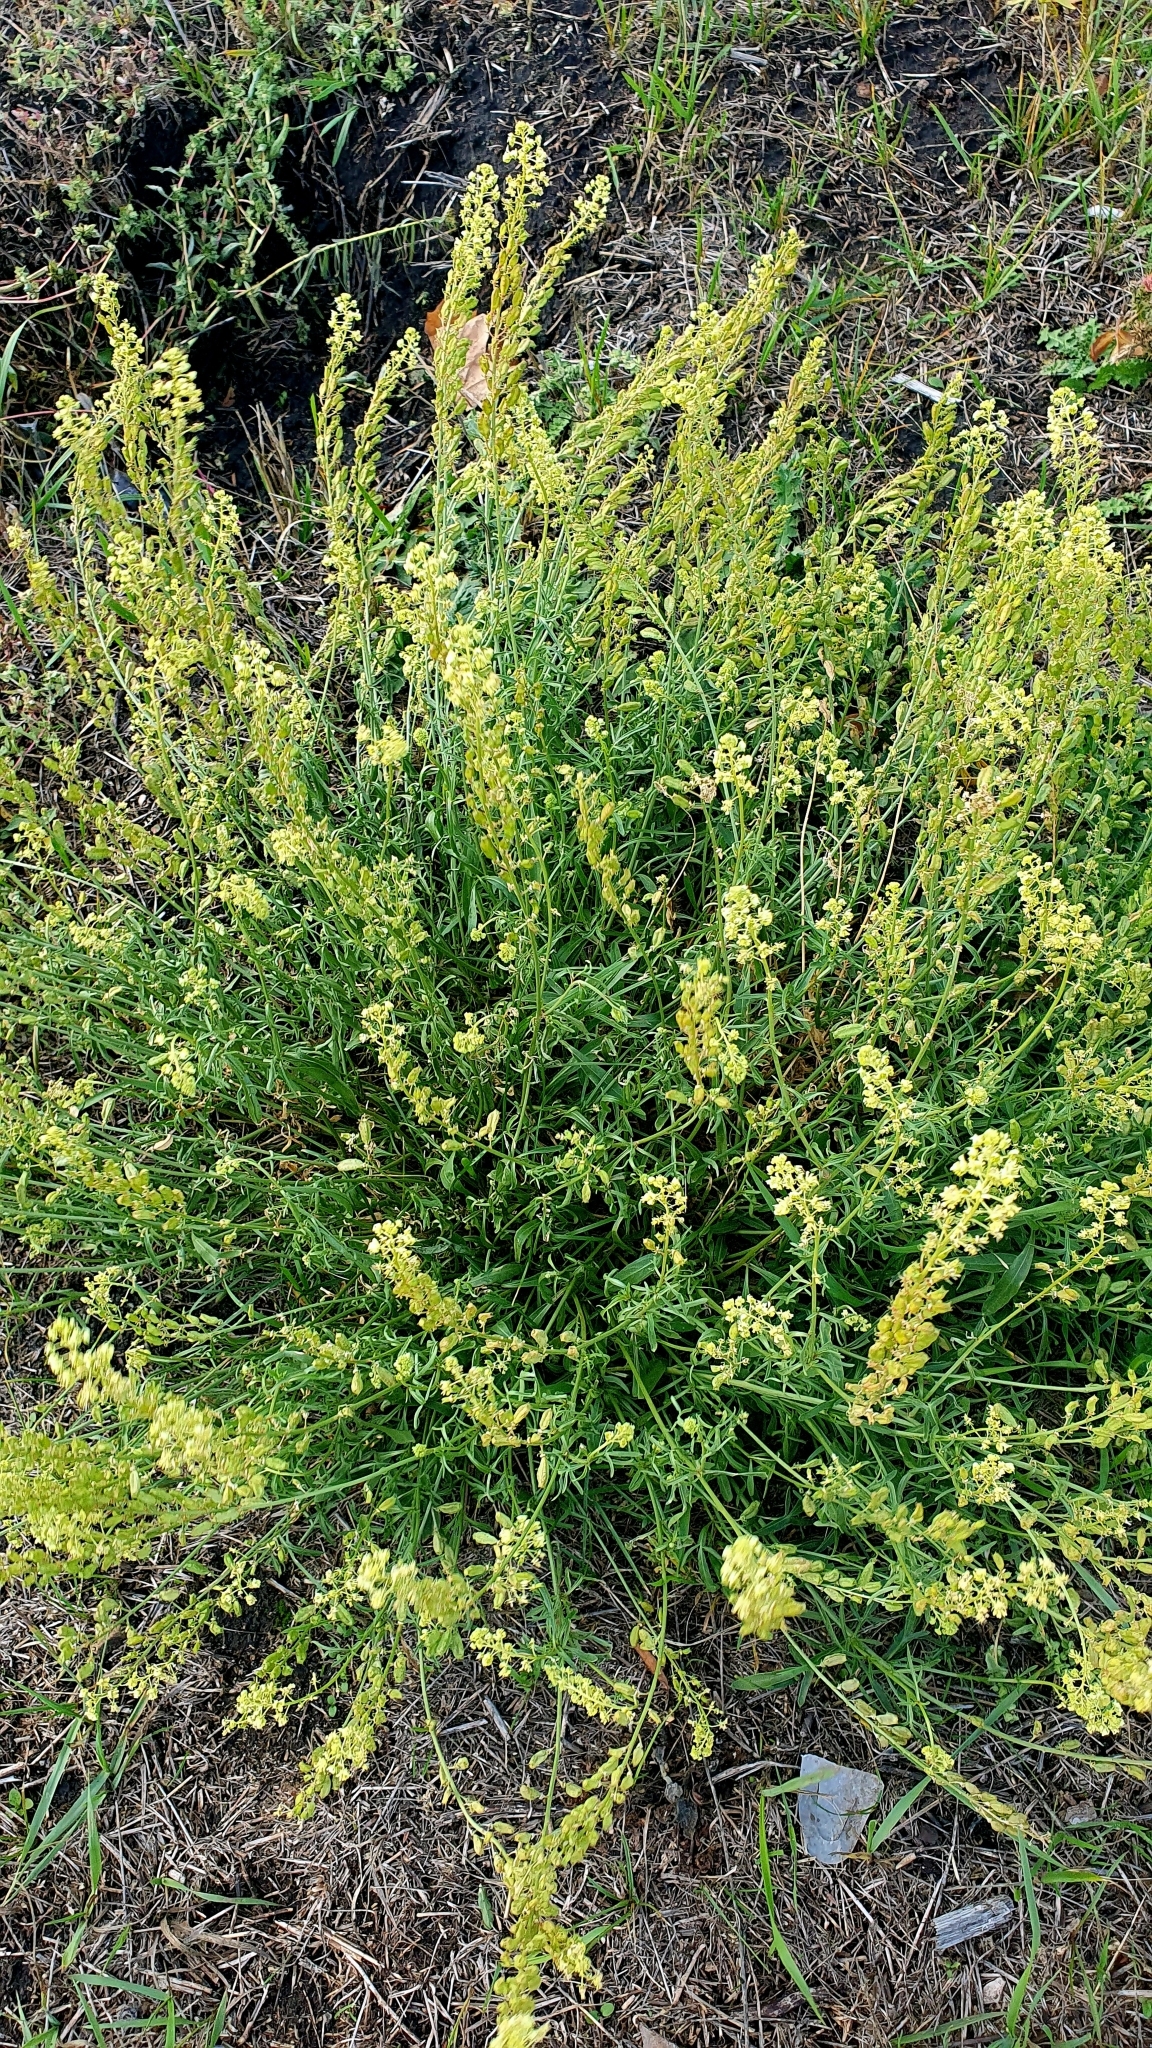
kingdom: Plantae
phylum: Tracheophyta
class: Magnoliopsida
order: Brassicales
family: Resedaceae
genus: Reseda
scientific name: Reseda lutea
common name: Wild mignonette
